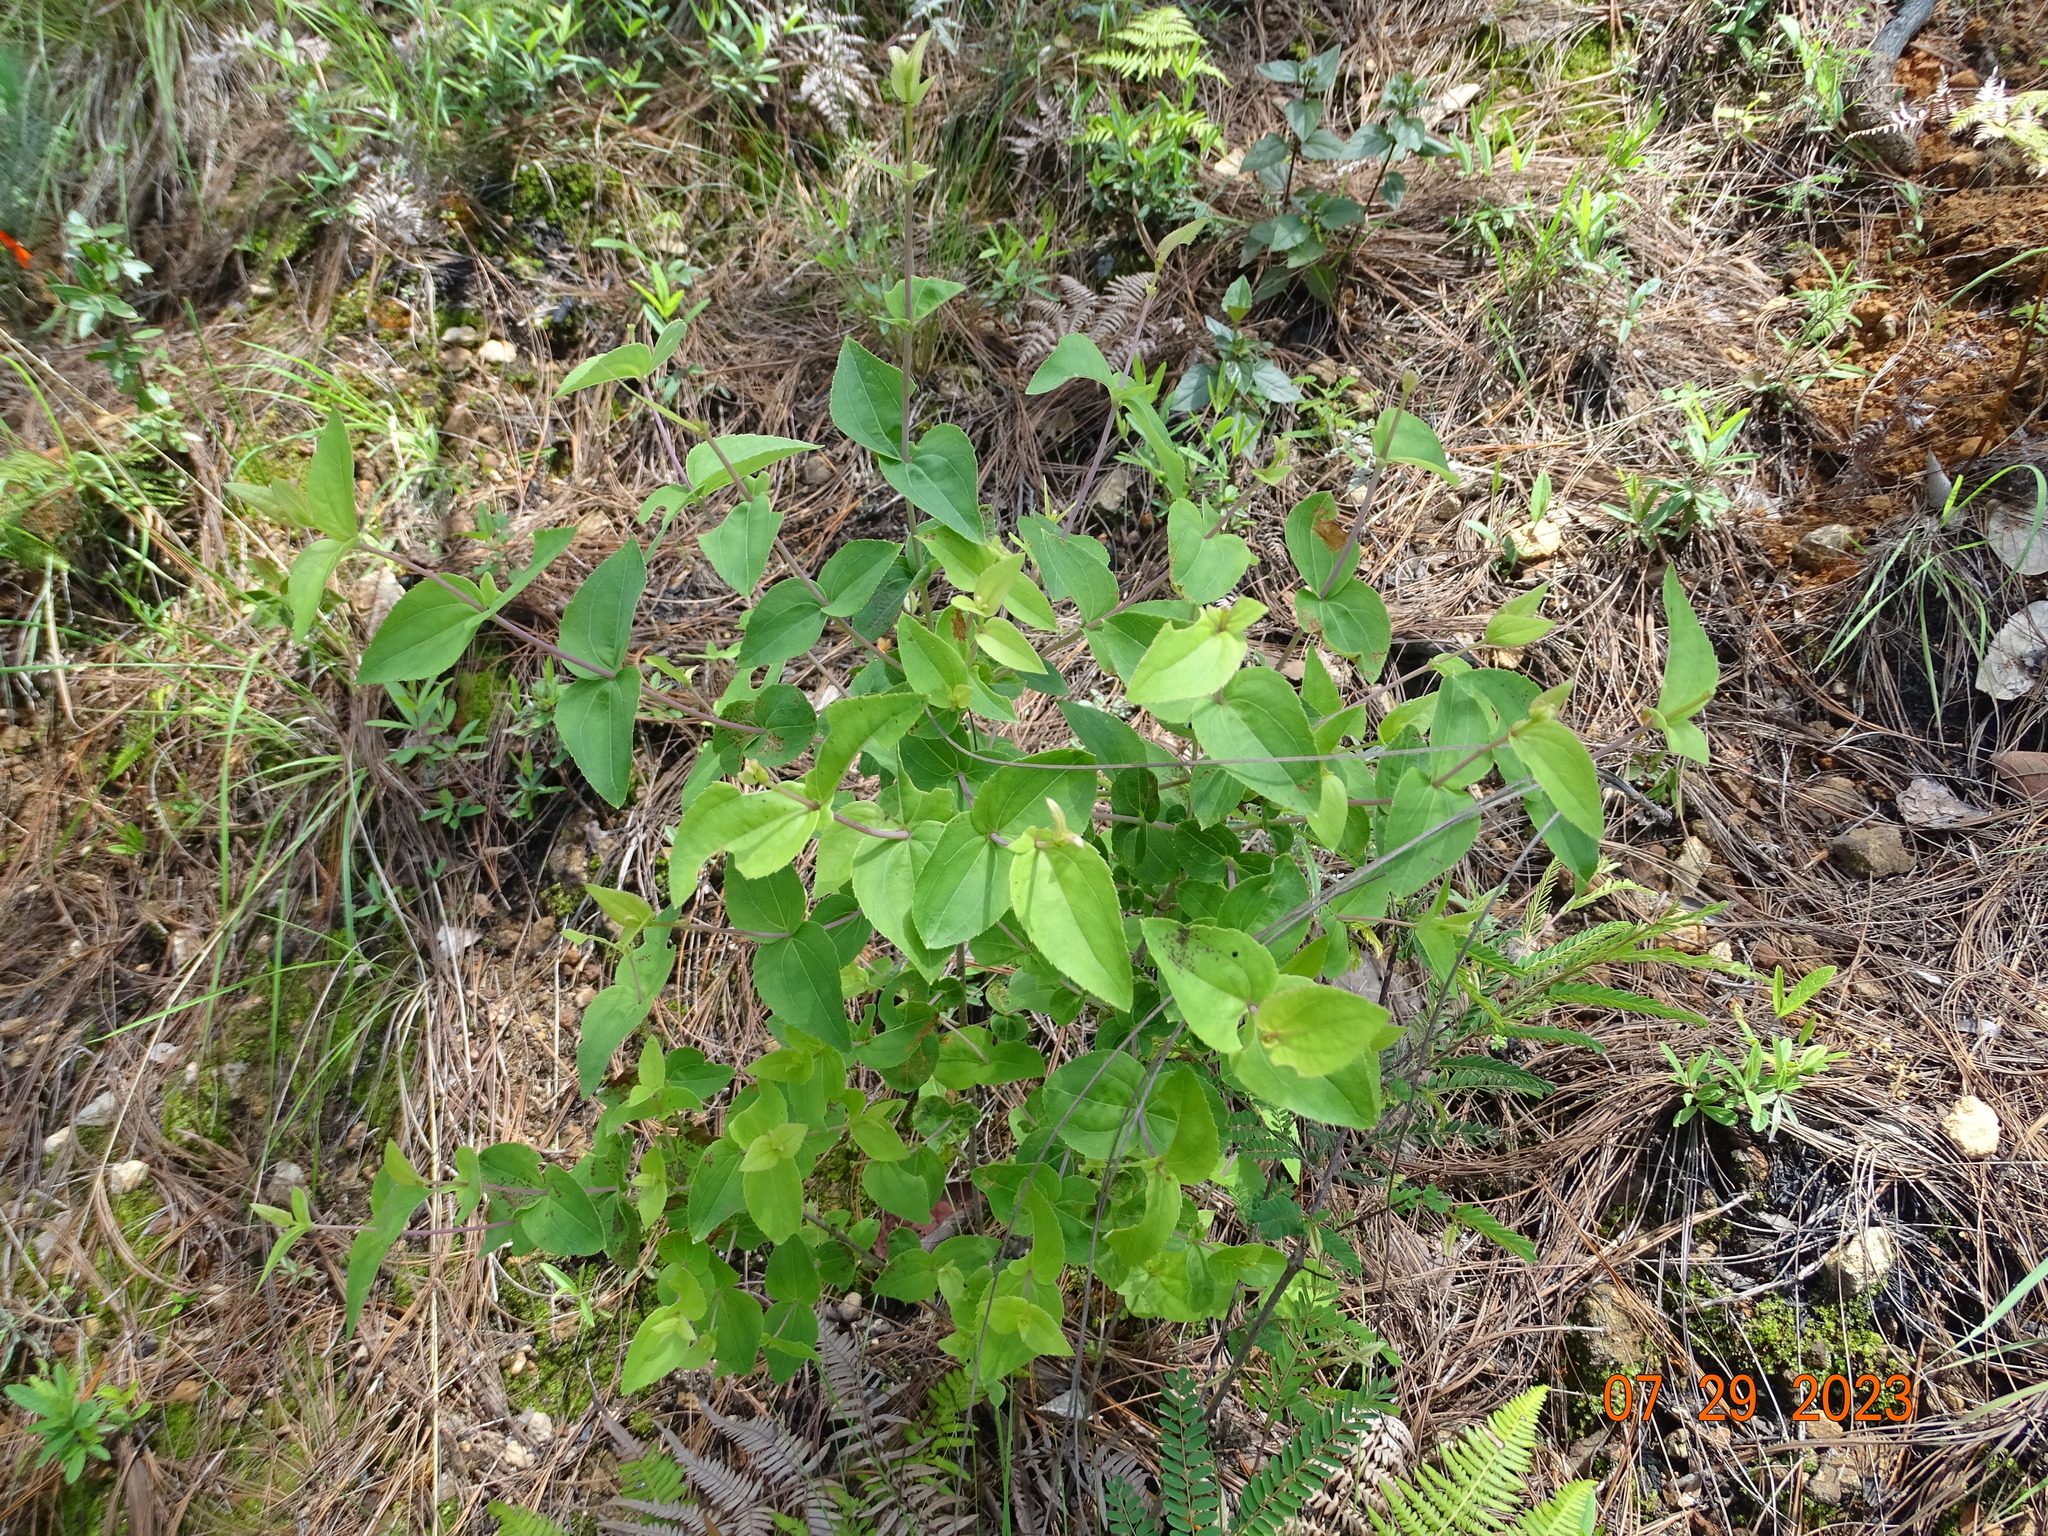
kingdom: Plantae
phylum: Tracheophyta
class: Magnoliopsida
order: Asterales
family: Asteraceae
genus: Ageratina
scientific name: Ageratina jaliscensis
